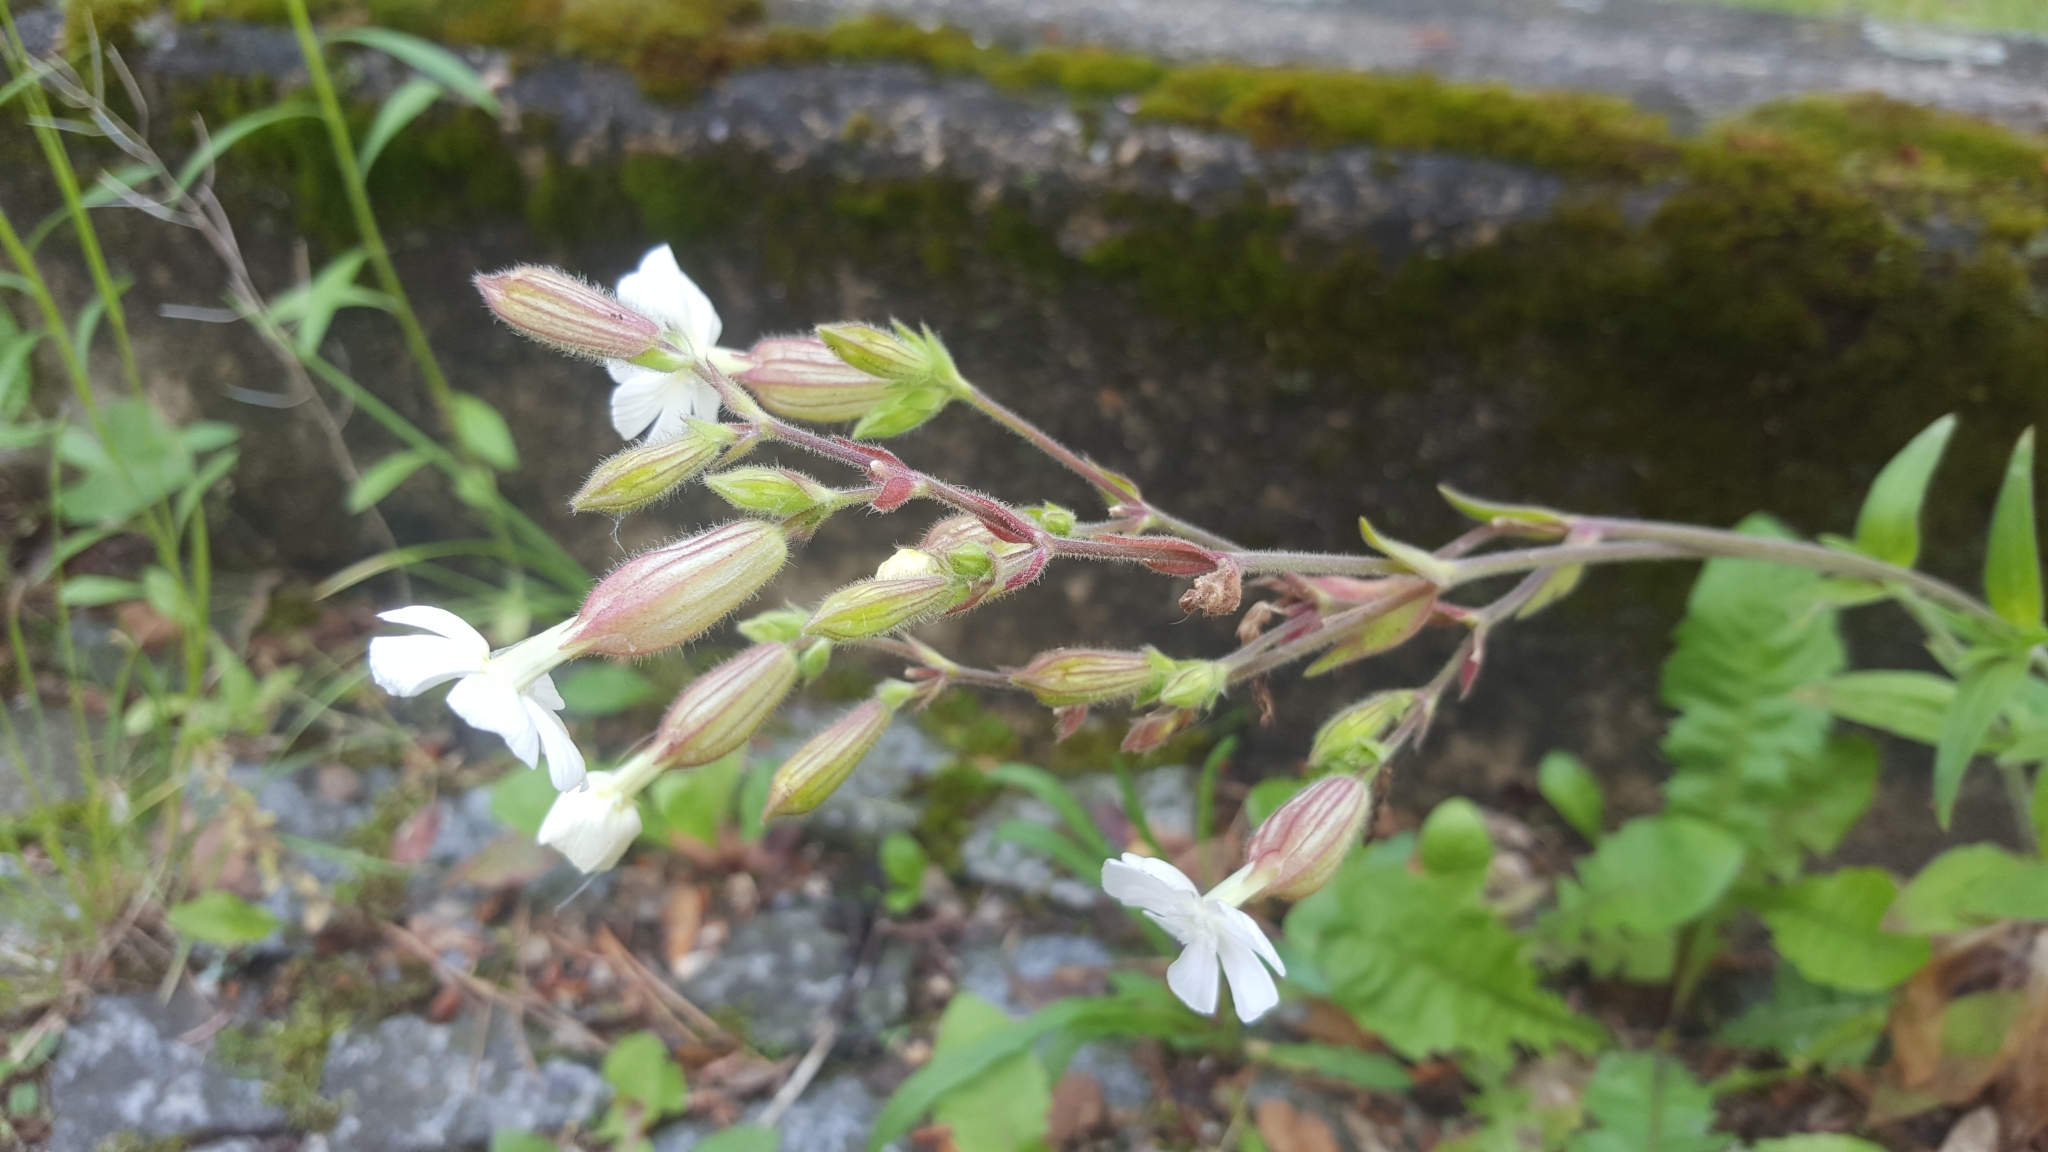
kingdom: Plantae
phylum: Tracheophyta
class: Magnoliopsida
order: Caryophyllales
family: Caryophyllaceae
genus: Silene
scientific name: Silene latifolia
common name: White campion
